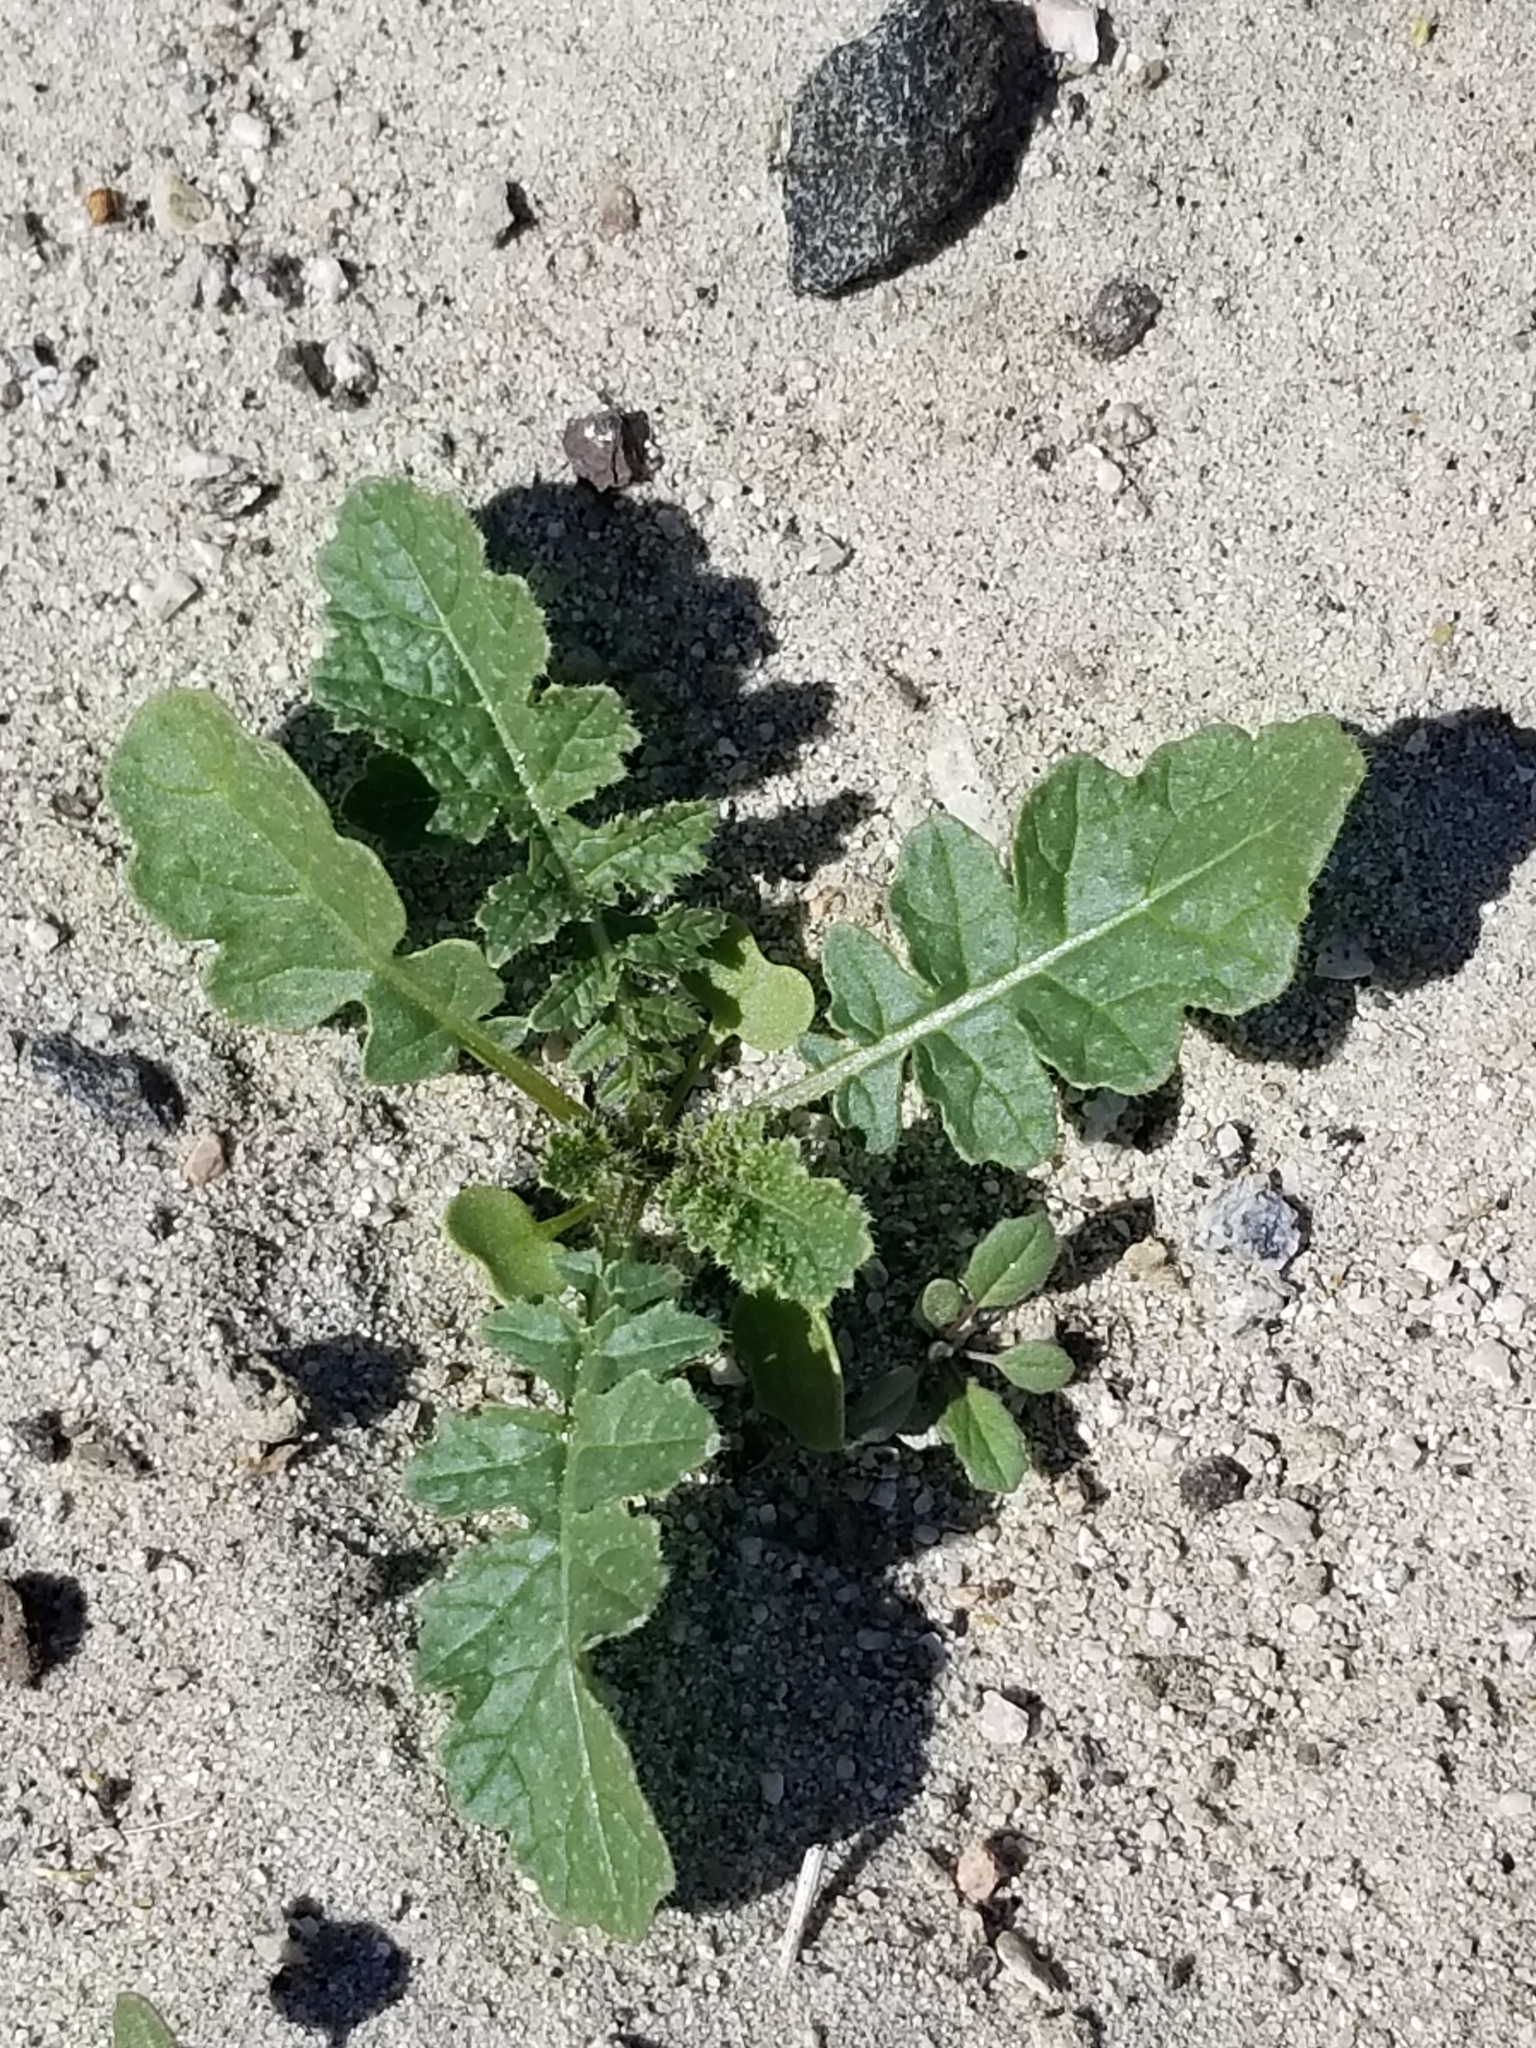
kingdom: Plantae
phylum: Tracheophyta
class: Magnoliopsida
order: Brassicales
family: Brassicaceae
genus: Brassica
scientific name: Brassica tournefortii
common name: Pale cabbage
